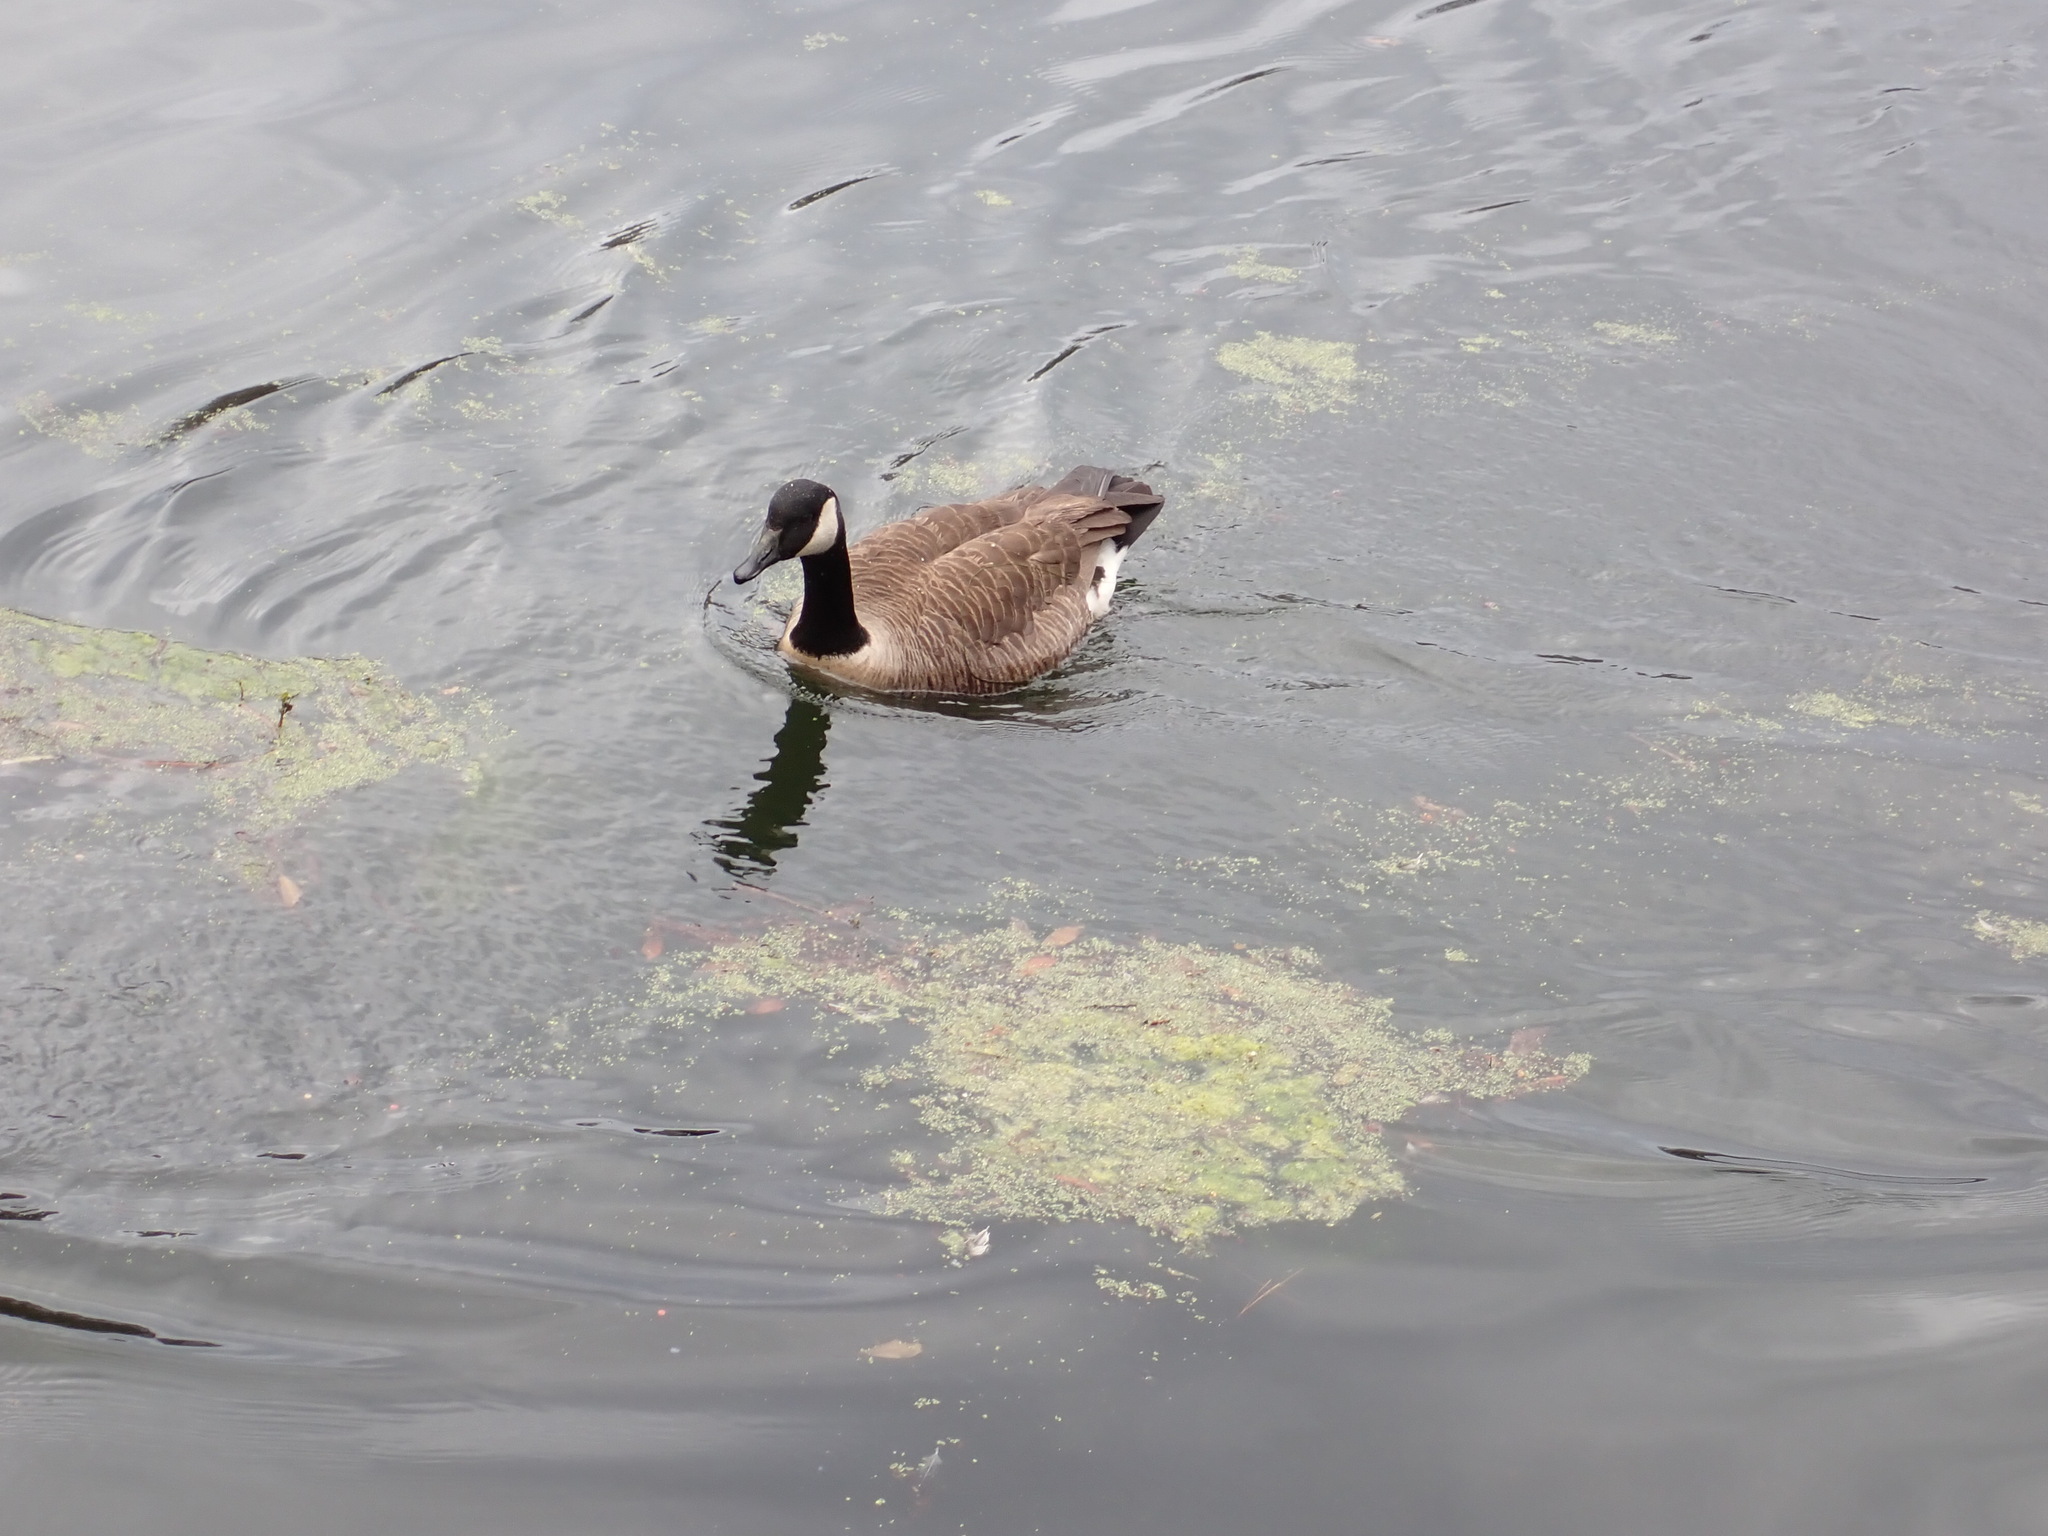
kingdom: Animalia
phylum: Chordata
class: Aves
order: Anseriformes
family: Anatidae
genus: Branta
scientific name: Branta canadensis
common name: Canada goose
